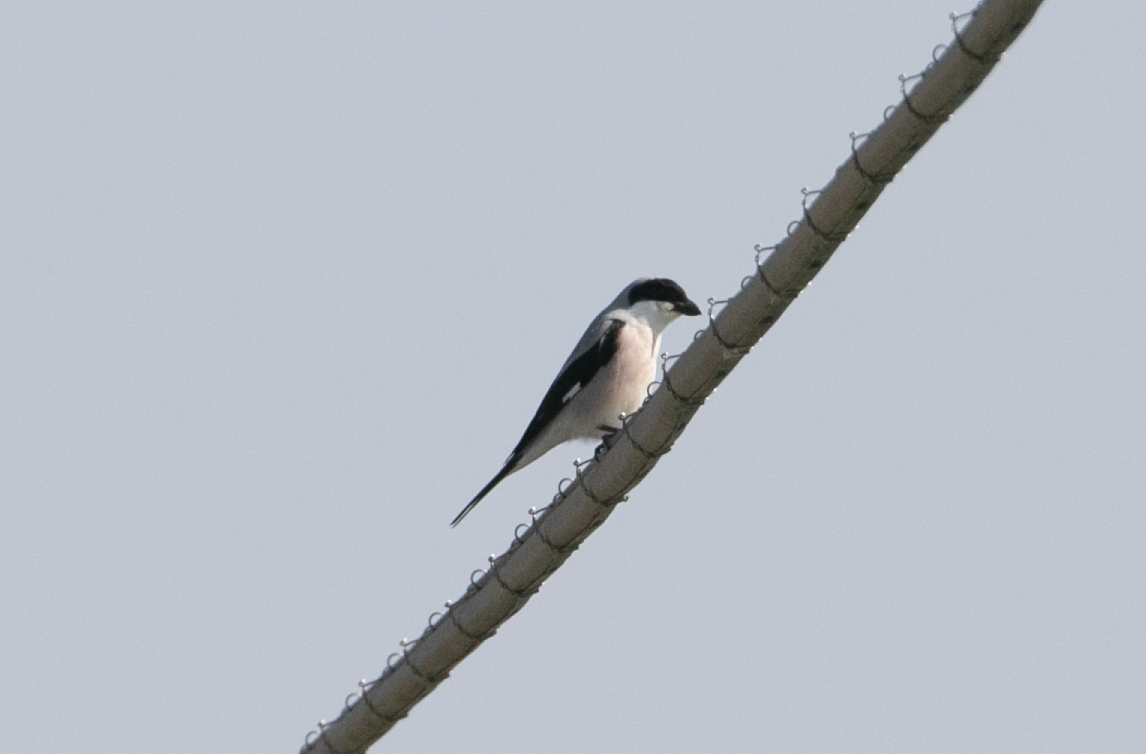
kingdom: Animalia
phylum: Chordata
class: Aves
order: Passeriformes
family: Laniidae
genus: Lanius
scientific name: Lanius minor
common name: Lesser grey shrike
